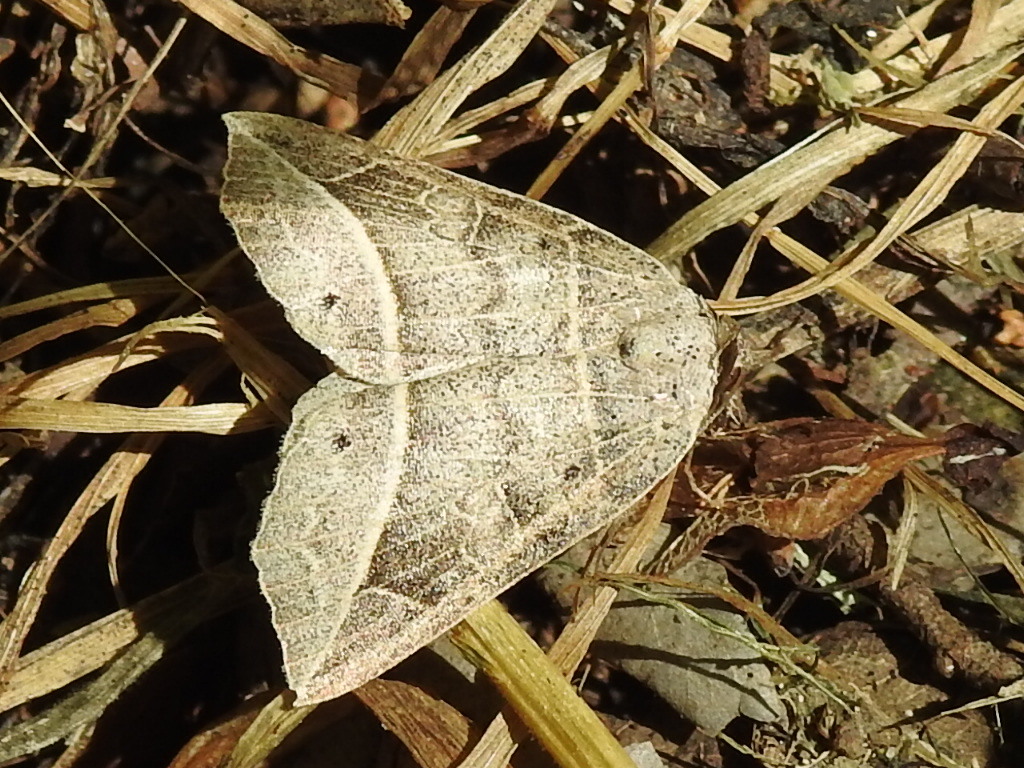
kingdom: Animalia
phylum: Arthropoda
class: Insecta
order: Lepidoptera
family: Erebidae
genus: Isogona
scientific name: Isogona tenuis
